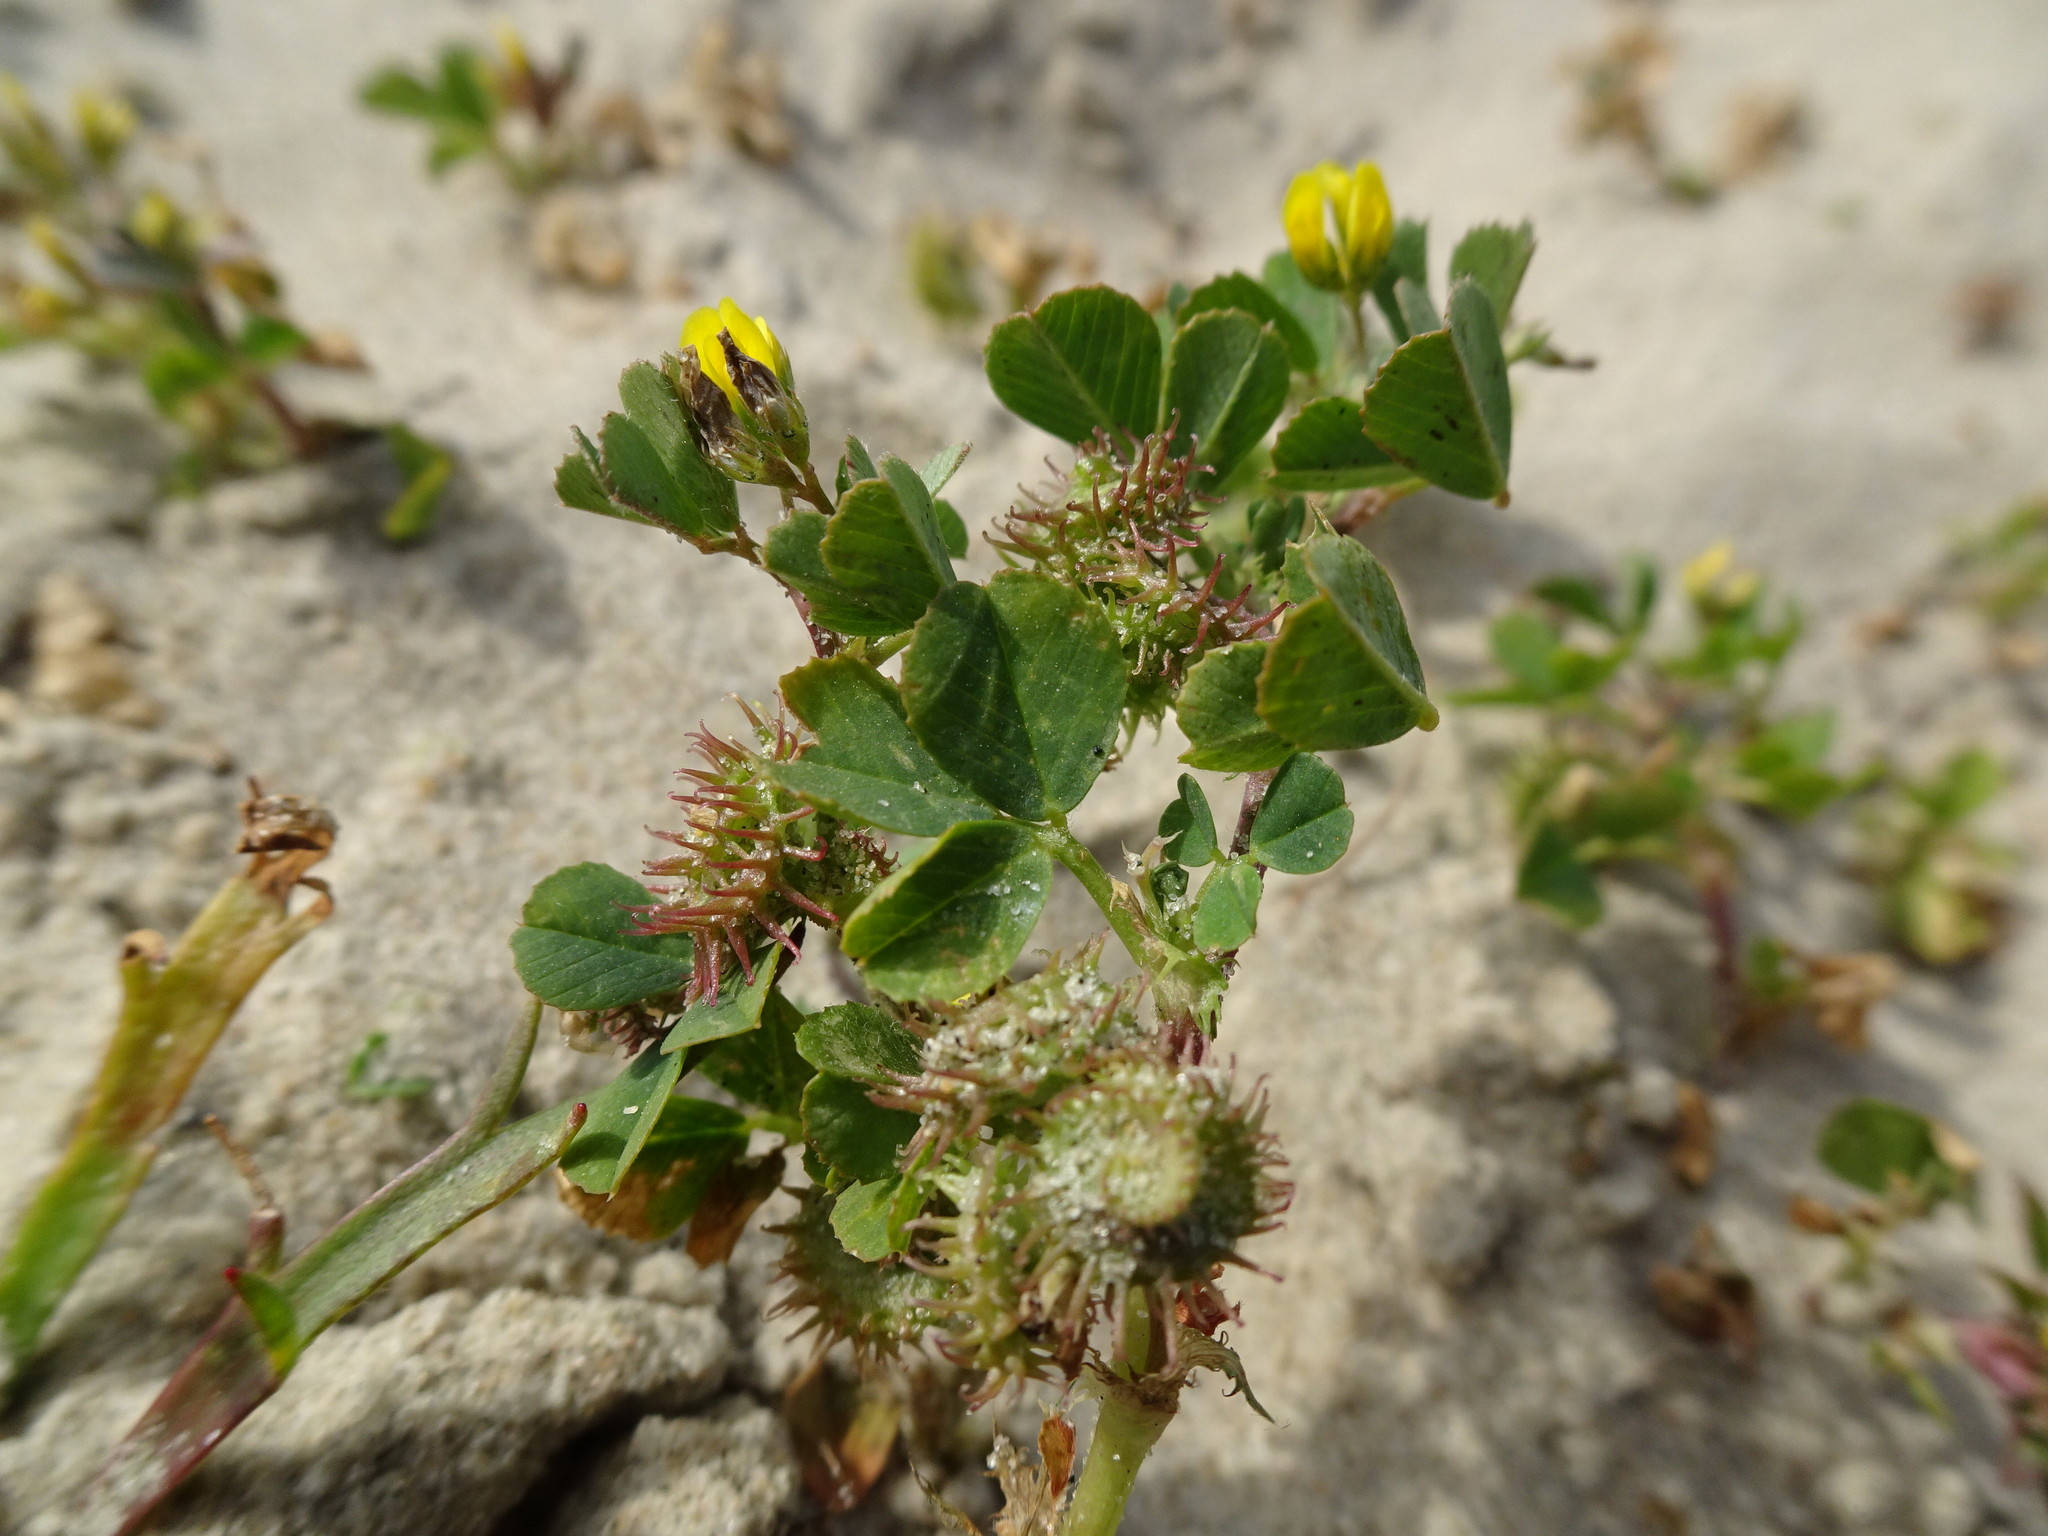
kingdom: Plantae
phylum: Tracheophyta
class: Magnoliopsida
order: Fabales
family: Fabaceae
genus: Medicago
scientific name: Medicago polymorpha
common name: Burclover
